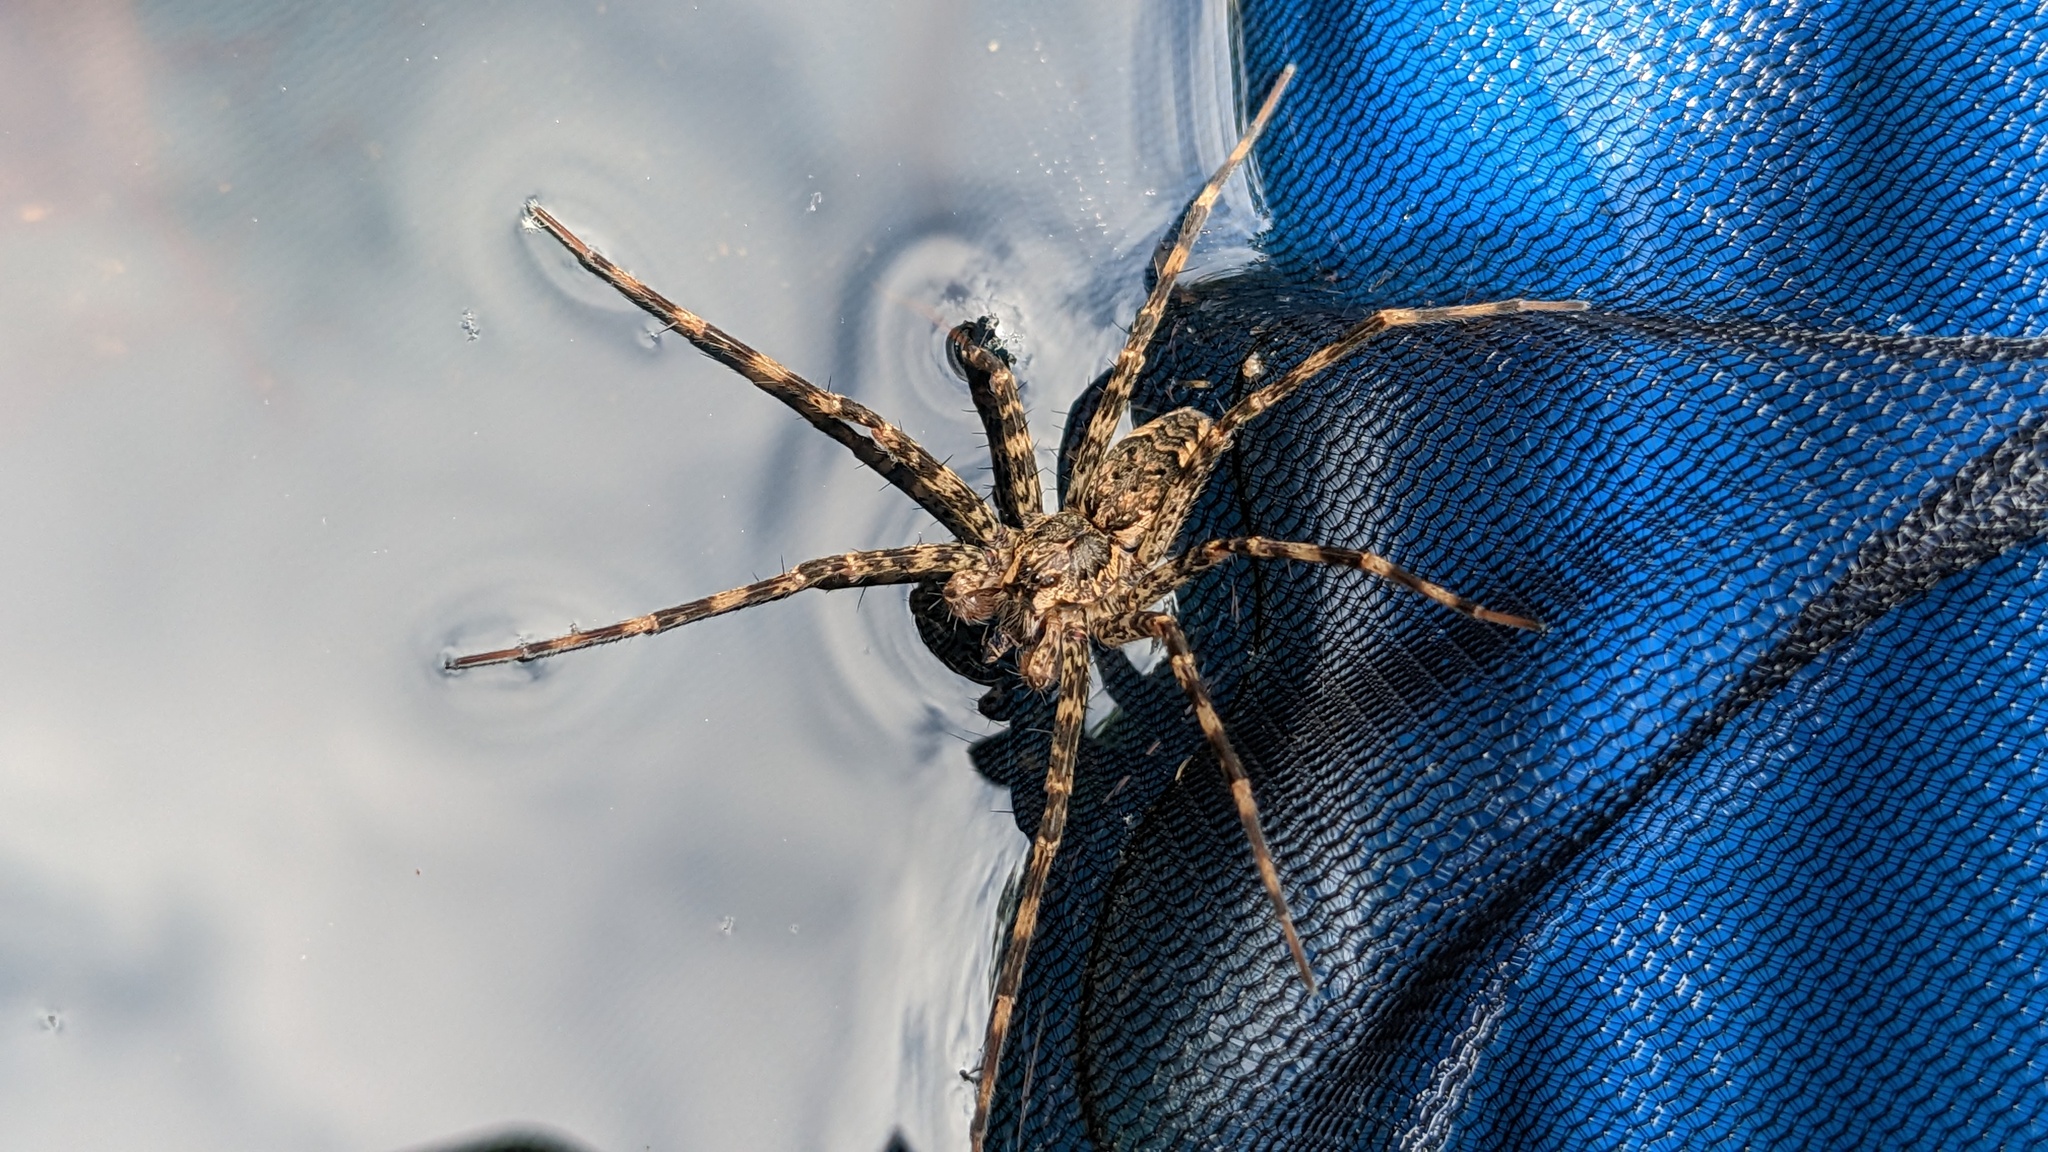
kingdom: Animalia
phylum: Arthropoda
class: Arachnida
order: Araneae
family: Pisauridae
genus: Dolomedes
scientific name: Dolomedes tenebrosus
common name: Dark fishing spider
